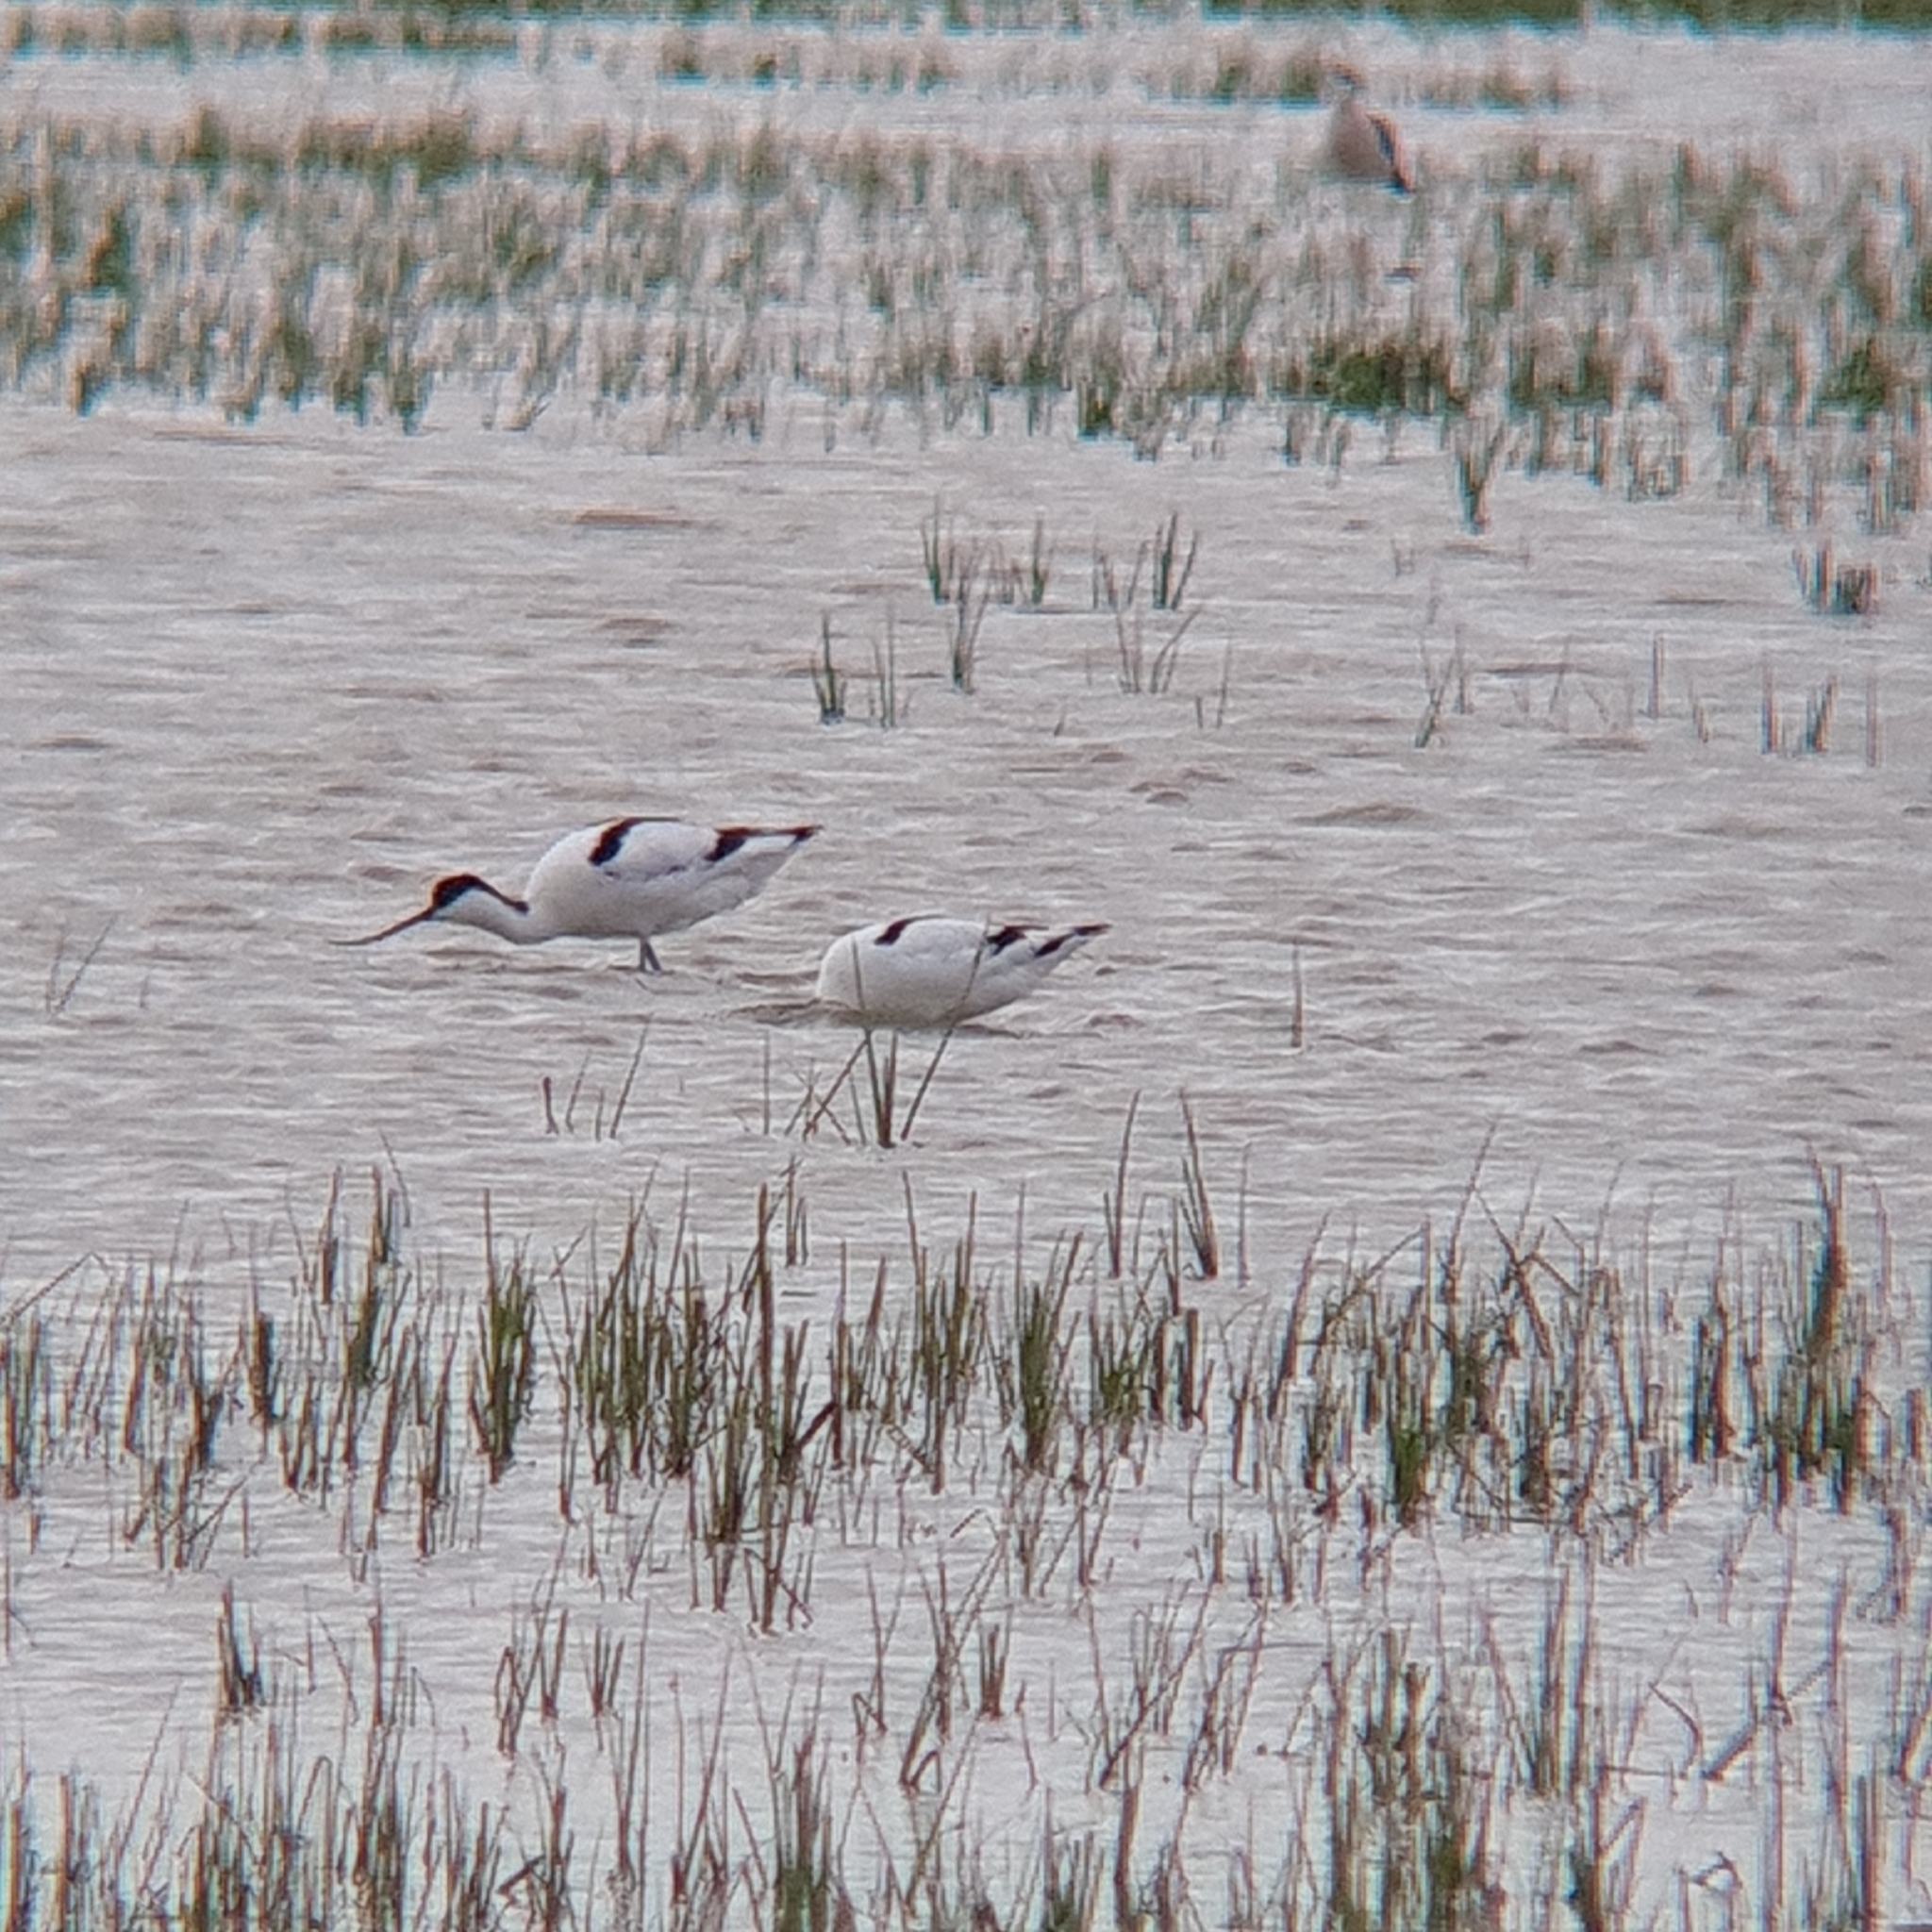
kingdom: Animalia
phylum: Chordata
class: Aves
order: Charadriiformes
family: Recurvirostridae
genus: Recurvirostra
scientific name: Recurvirostra avosetta
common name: Pied avocet
